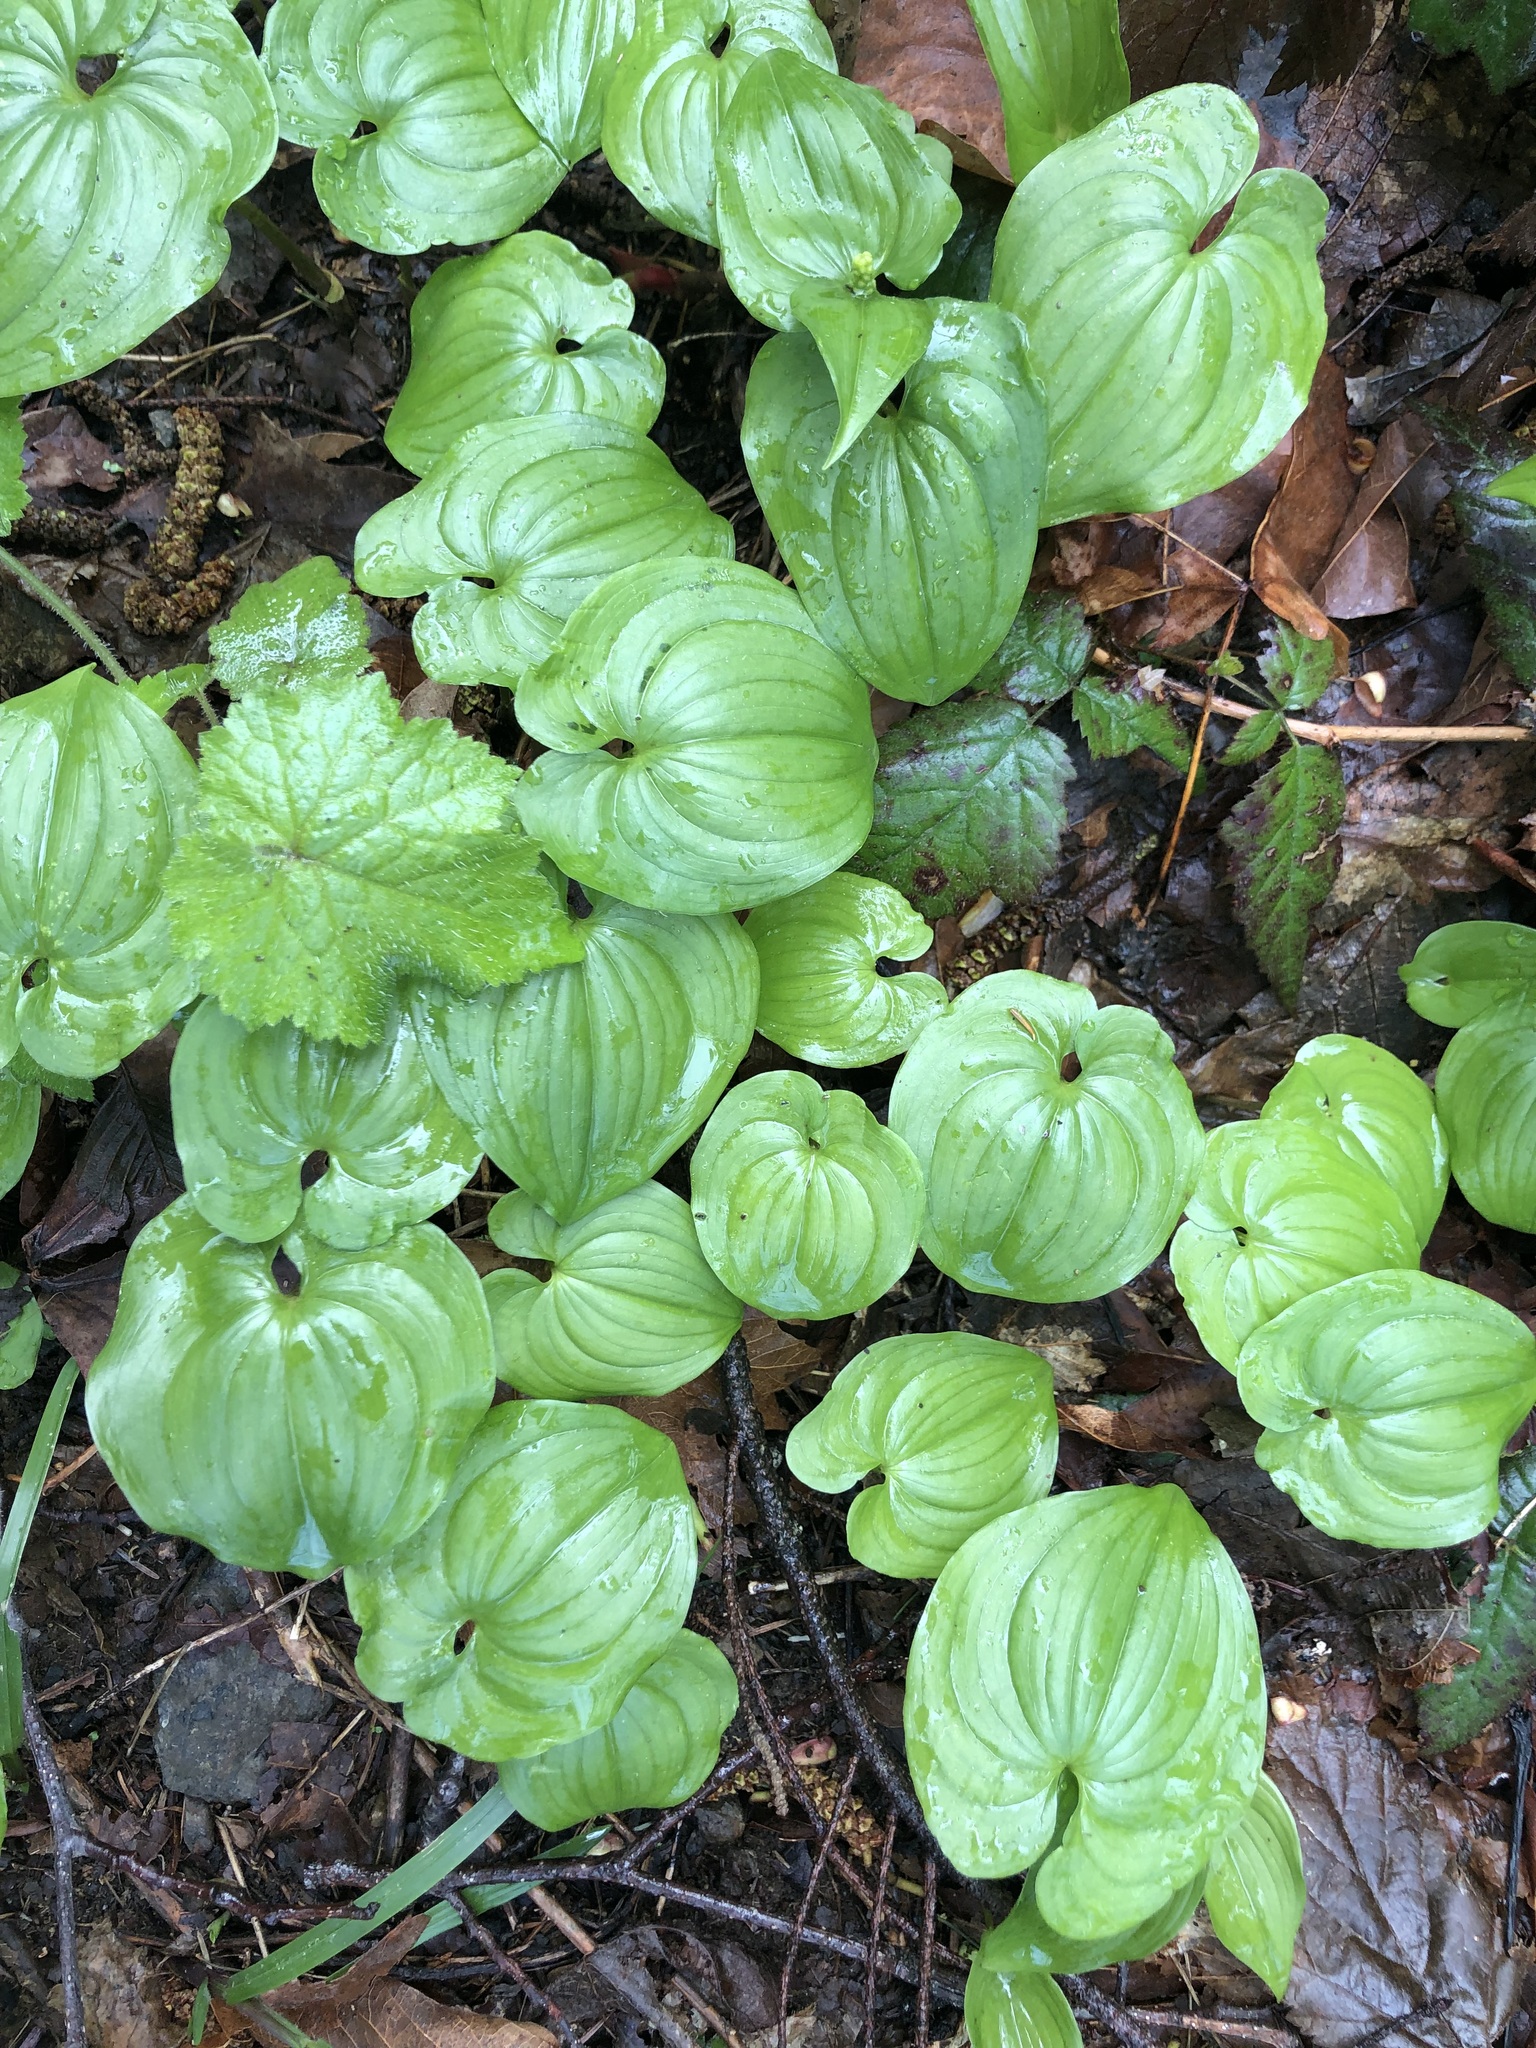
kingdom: Plantae
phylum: Tracheophyta
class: Liliopsida
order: Asparagales
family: Asparagaceae
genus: Maianthemum
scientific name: Maianthemum dilatatum
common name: False lily-of-the-valley
